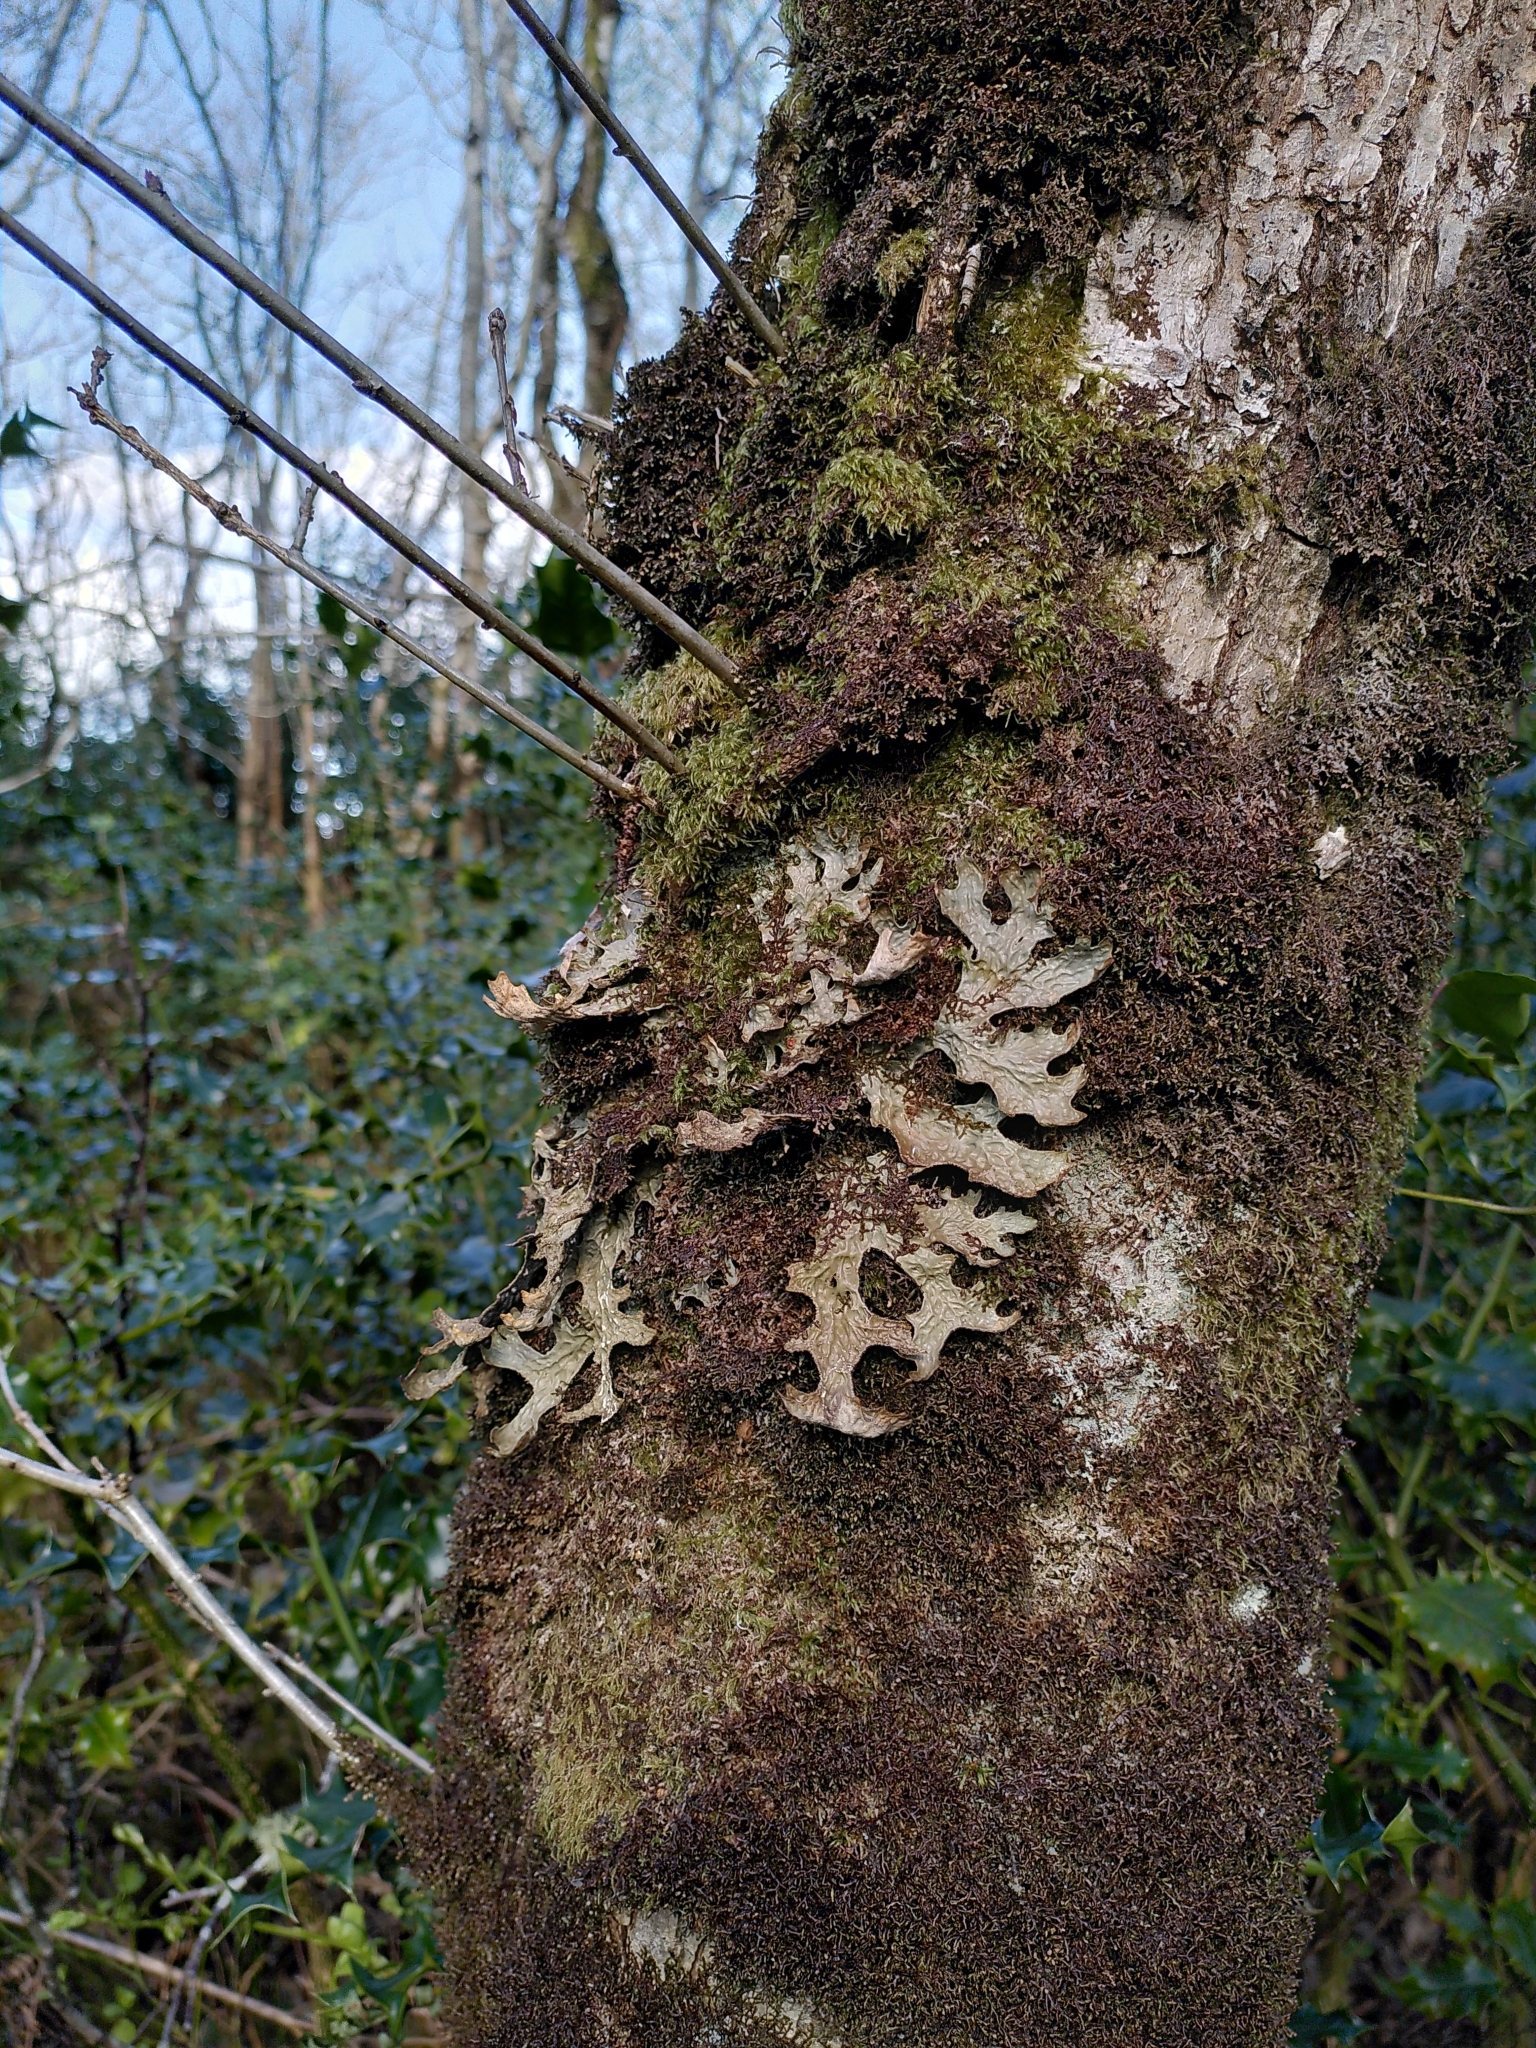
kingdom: Fungi
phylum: Ascomycota
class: Lecanoromycetes
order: Peltigerales
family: Lobariaceae
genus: Lobaria
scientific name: Lobaria pulmonaria
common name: Lungwort
